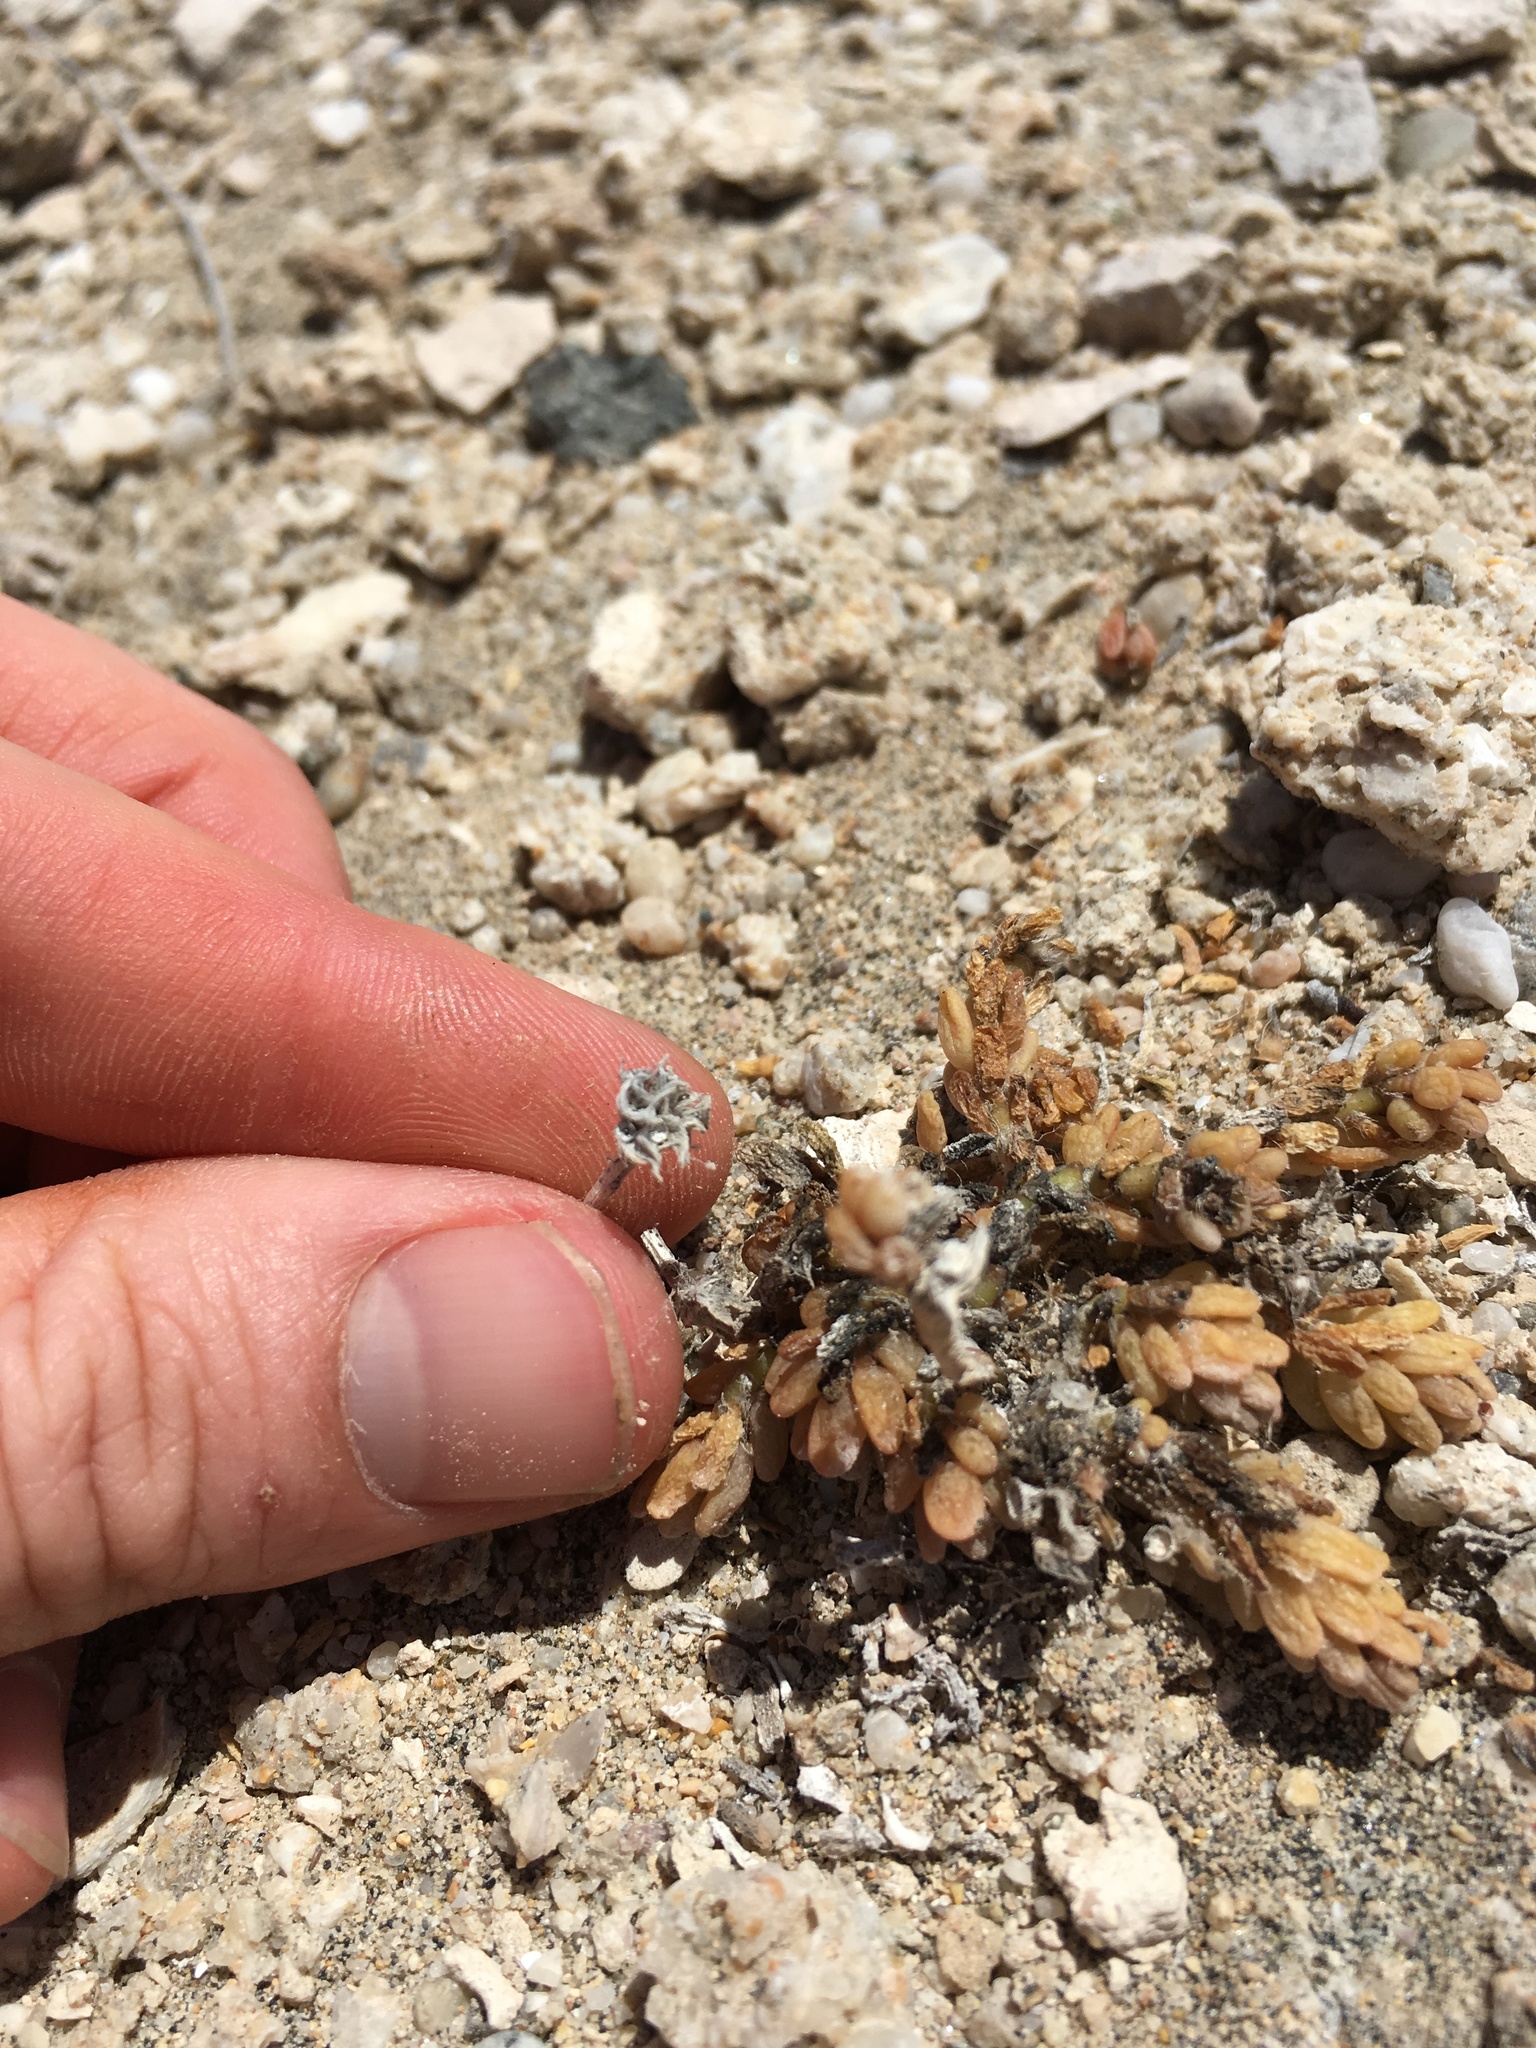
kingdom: Plantae
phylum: Tracheophyta
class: Magnoliopsida
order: Caryophyllales
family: Portulacaceae
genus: Portulaca
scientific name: Portulaca californica
